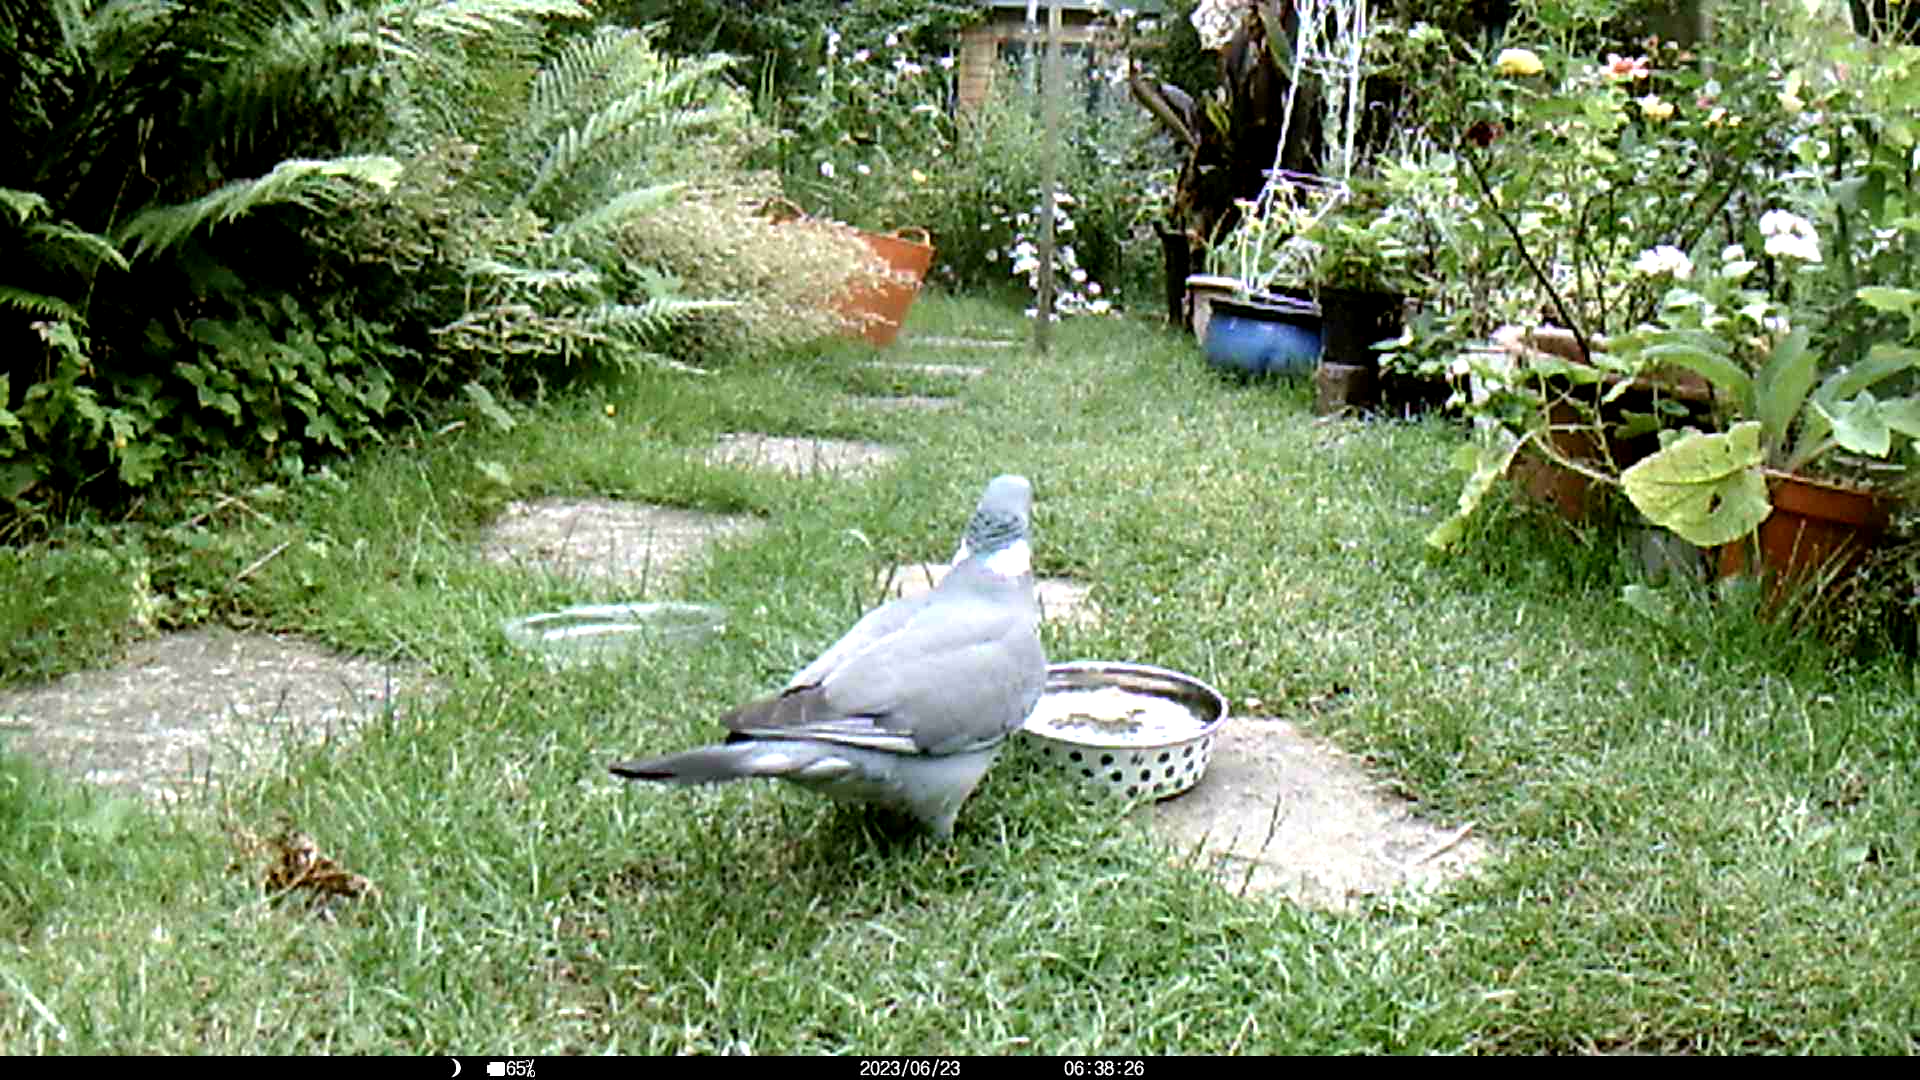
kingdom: Animalia
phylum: Chordata
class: Aves
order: Columbiformes
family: Columbidae
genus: Columba
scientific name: Columba palumbus
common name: Common wood pigeon
